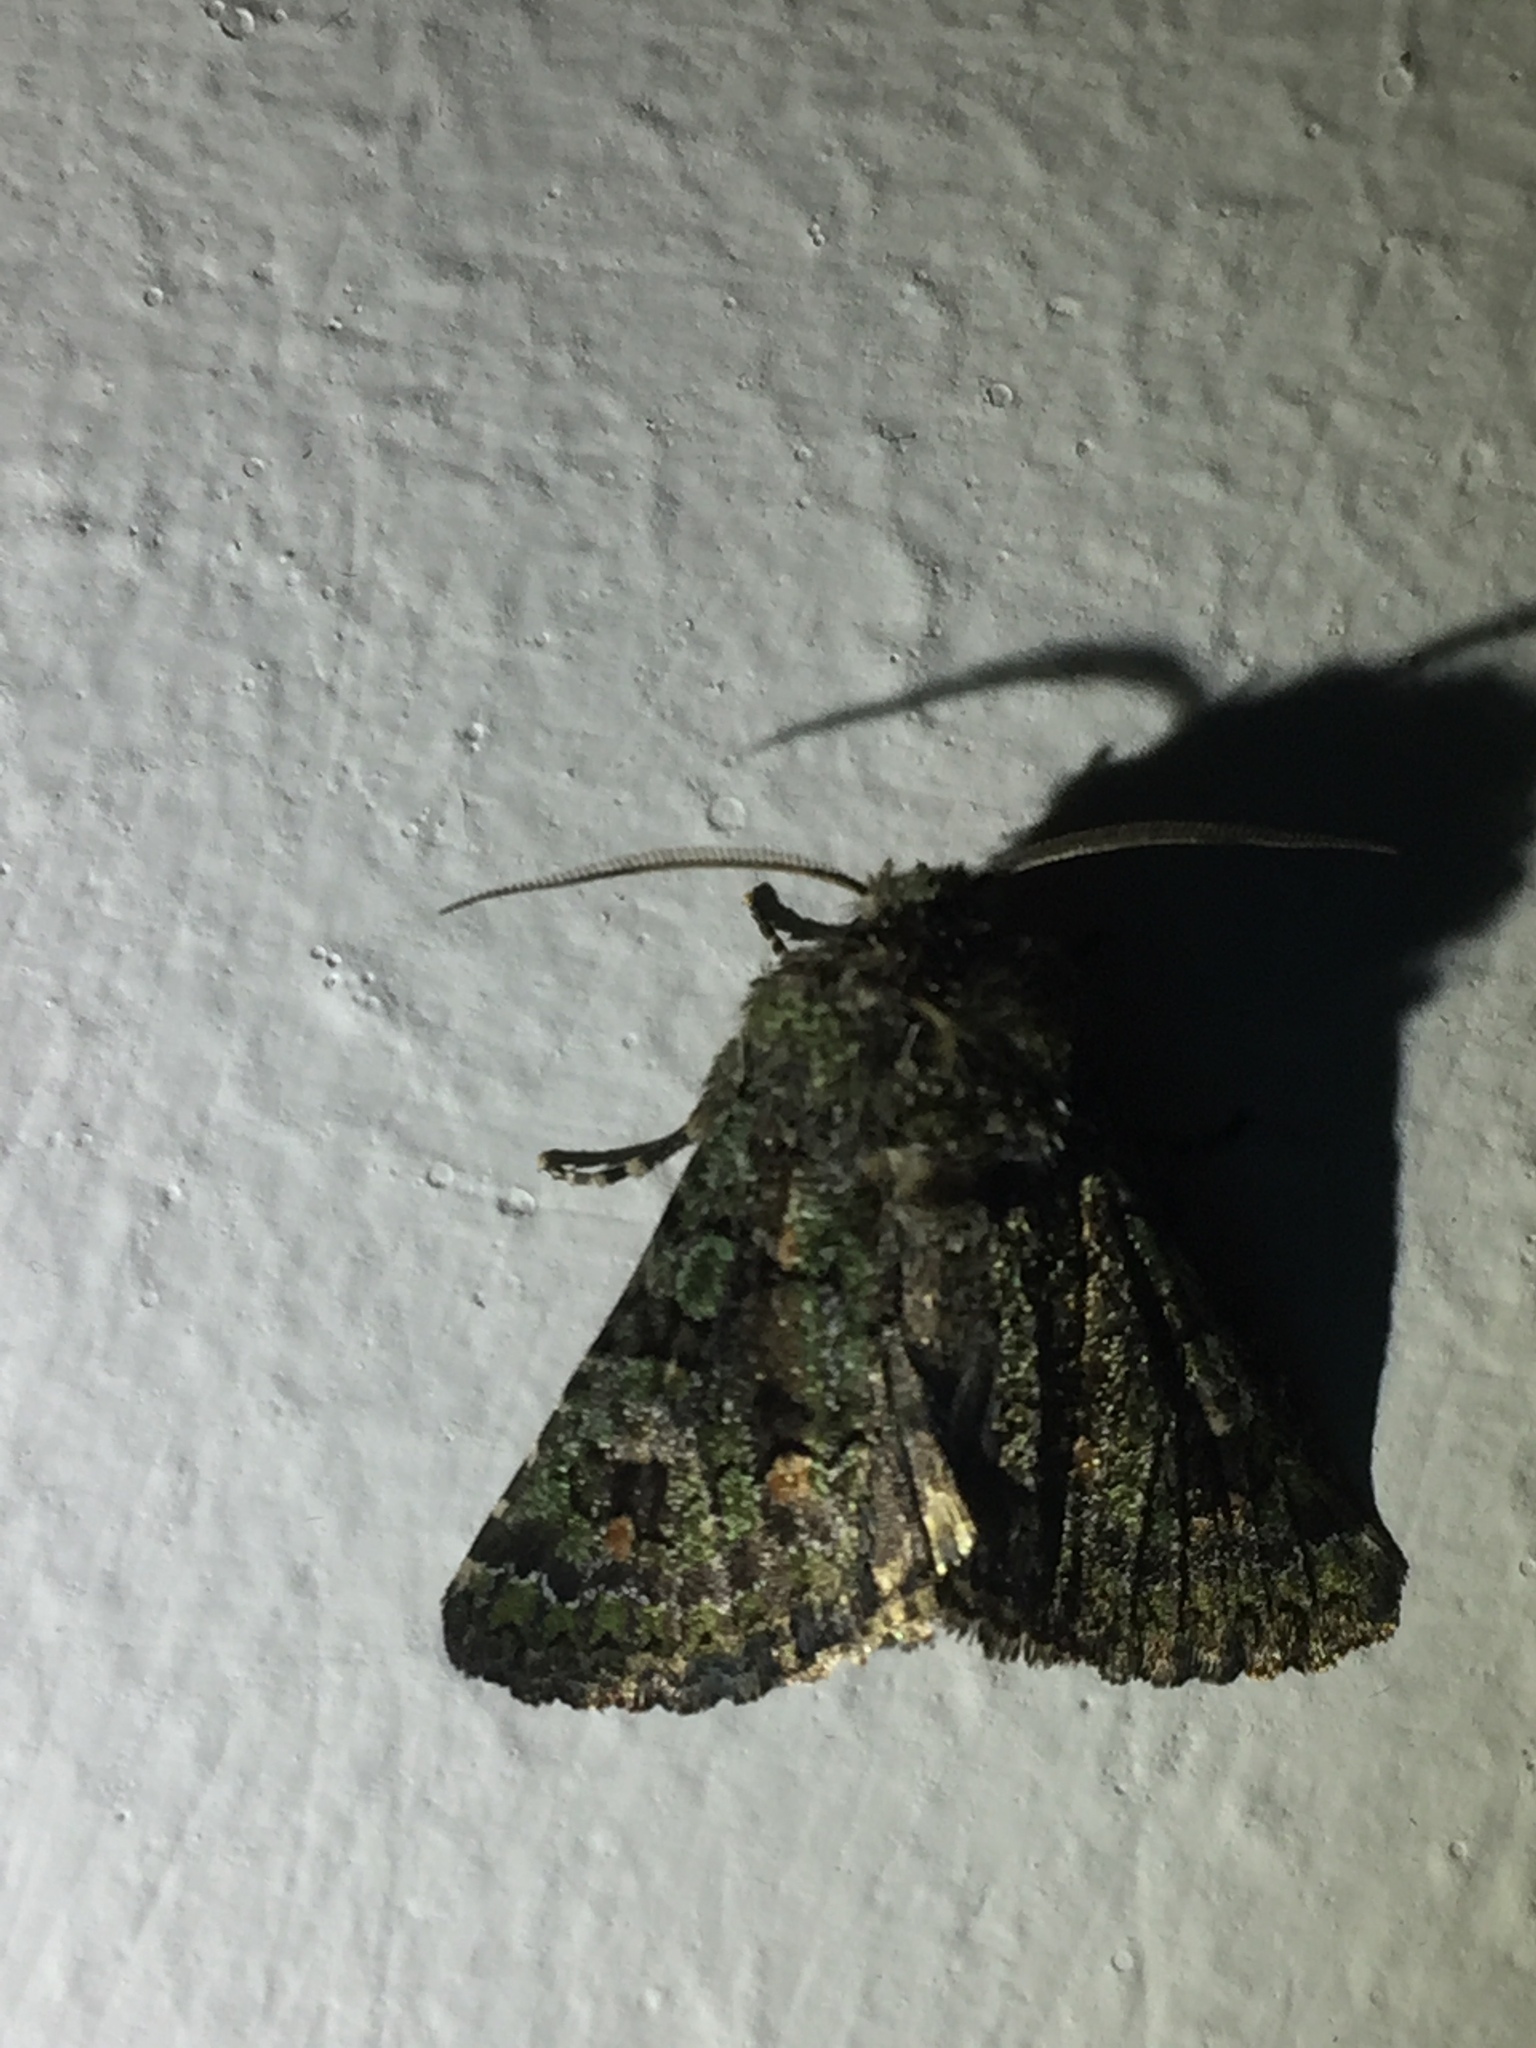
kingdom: Animalia
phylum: Arthropoda
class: Insecta
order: Lepidoptera
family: Noctuidae
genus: Klugeana
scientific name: Klugeana philoxalis
